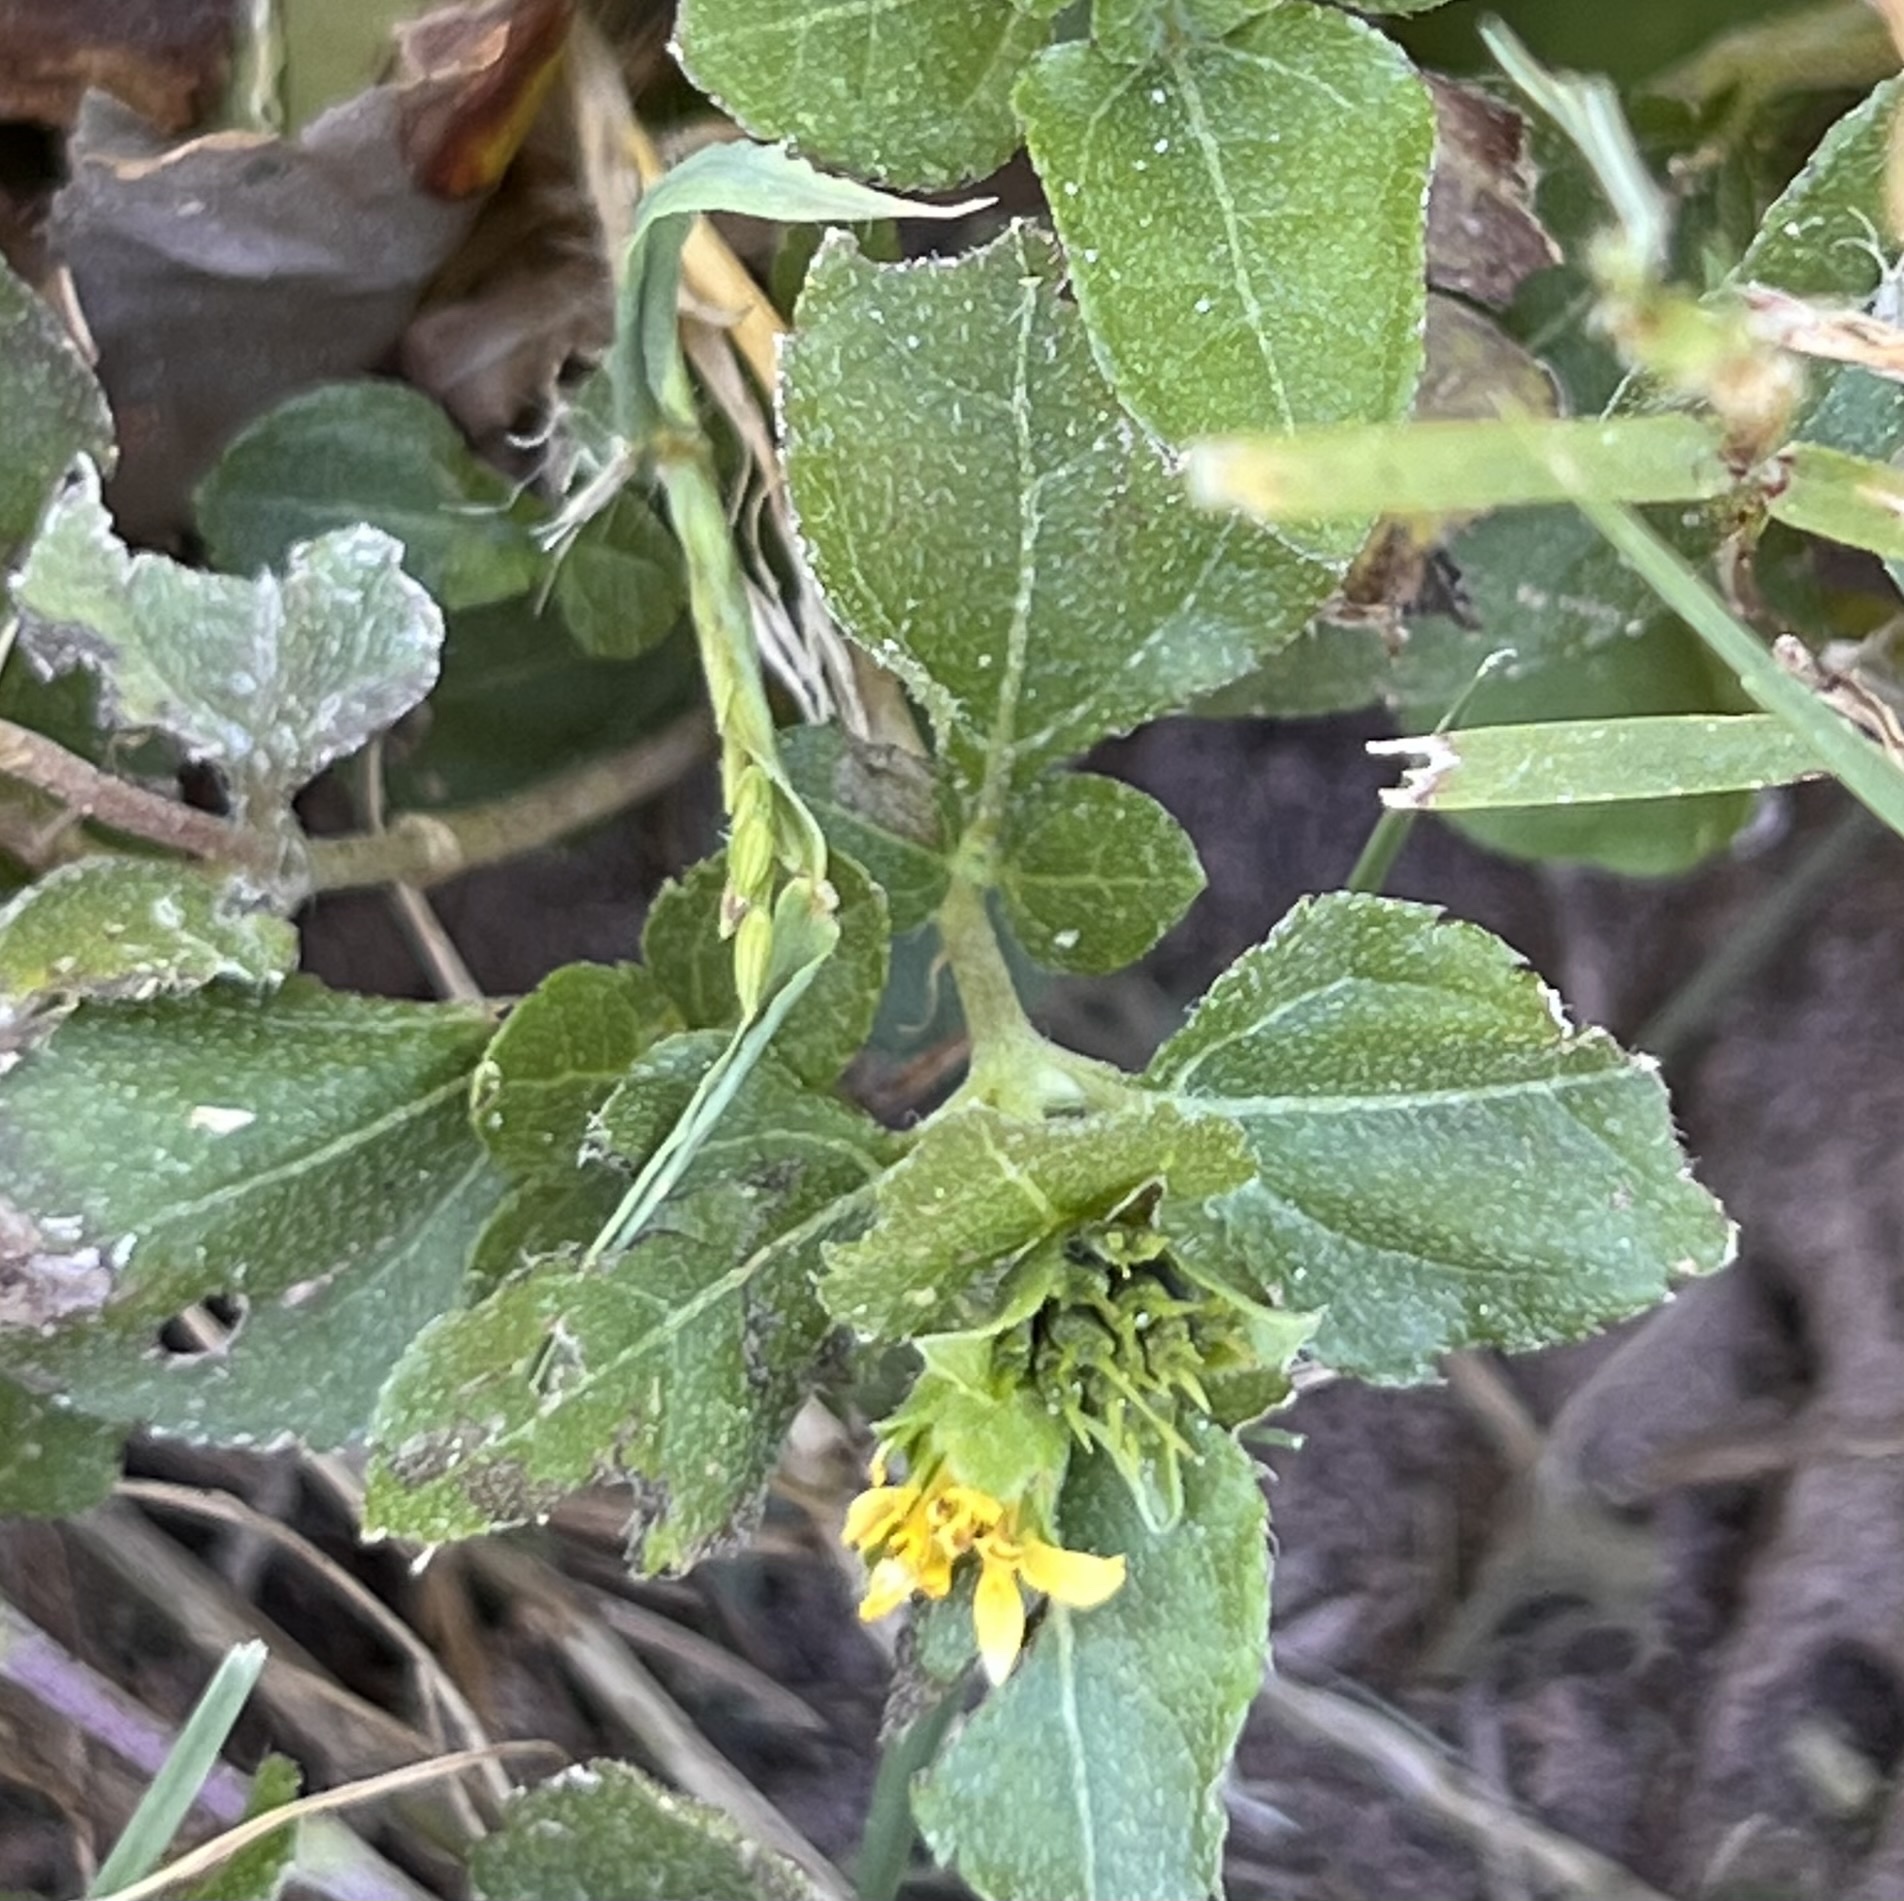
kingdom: Plantae
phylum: Tracheophyta
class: Magnoliopsida
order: Asterales
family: Asteraceae
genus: Calyptocarpus
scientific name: Calyptocarpus vialis
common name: Straggler daisy
